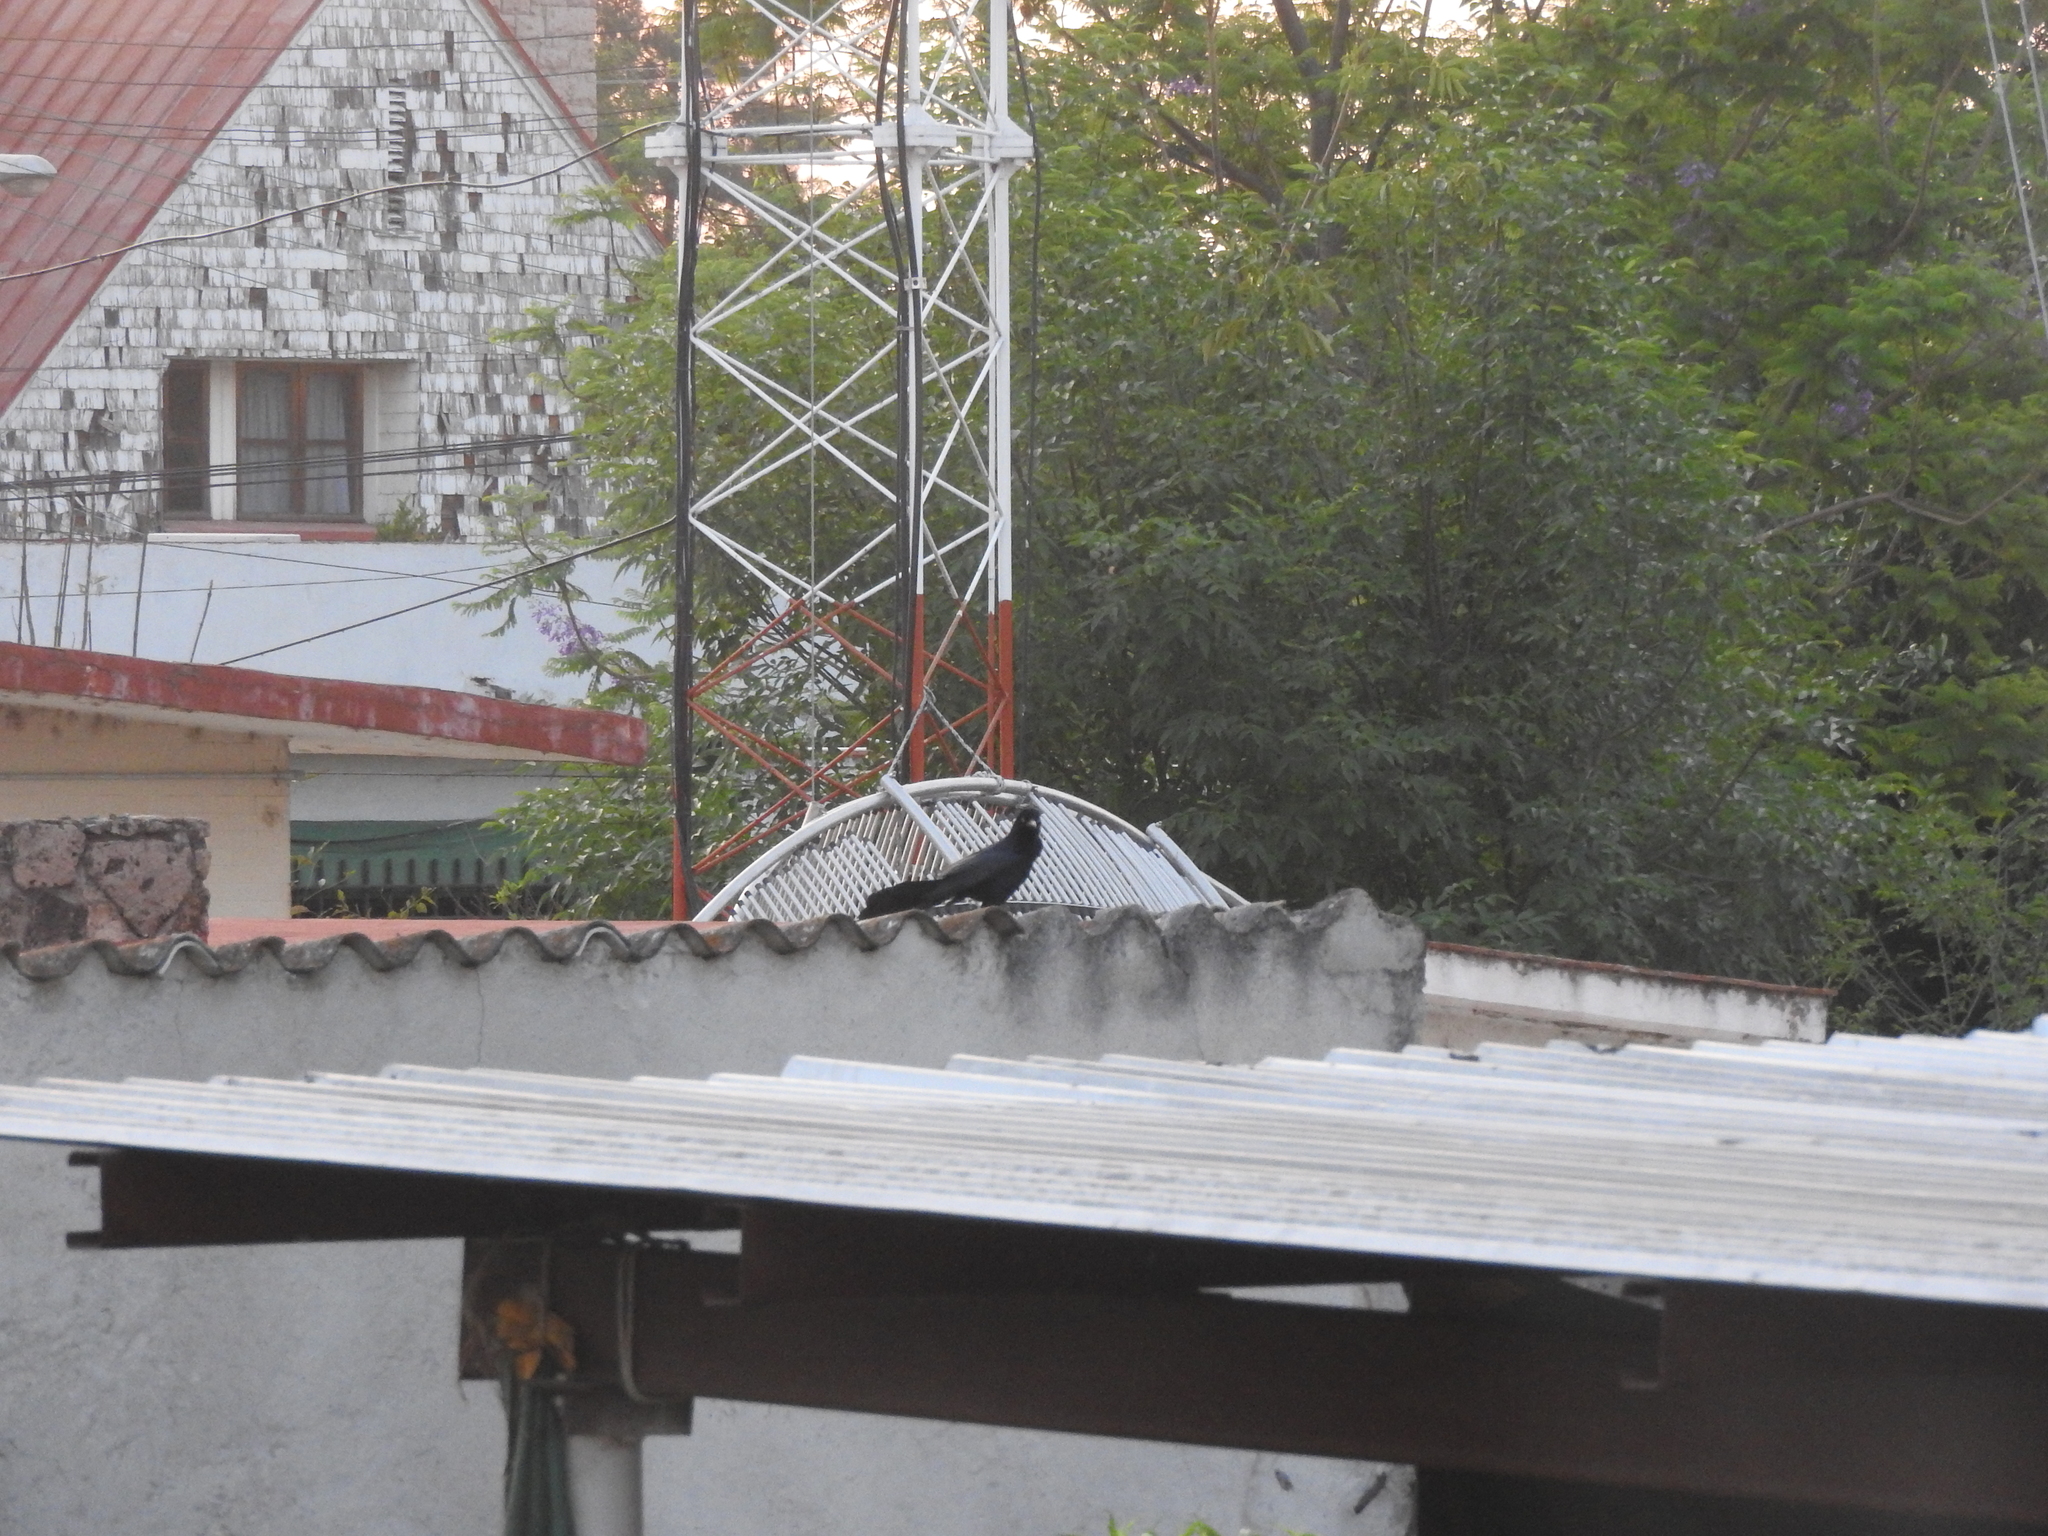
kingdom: Animalia
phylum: Chordata
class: Aves
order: Passeriformes
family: Icteridae
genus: Quiscalus
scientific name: Quiscalus mexicanus
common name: Great-tailed grackle
